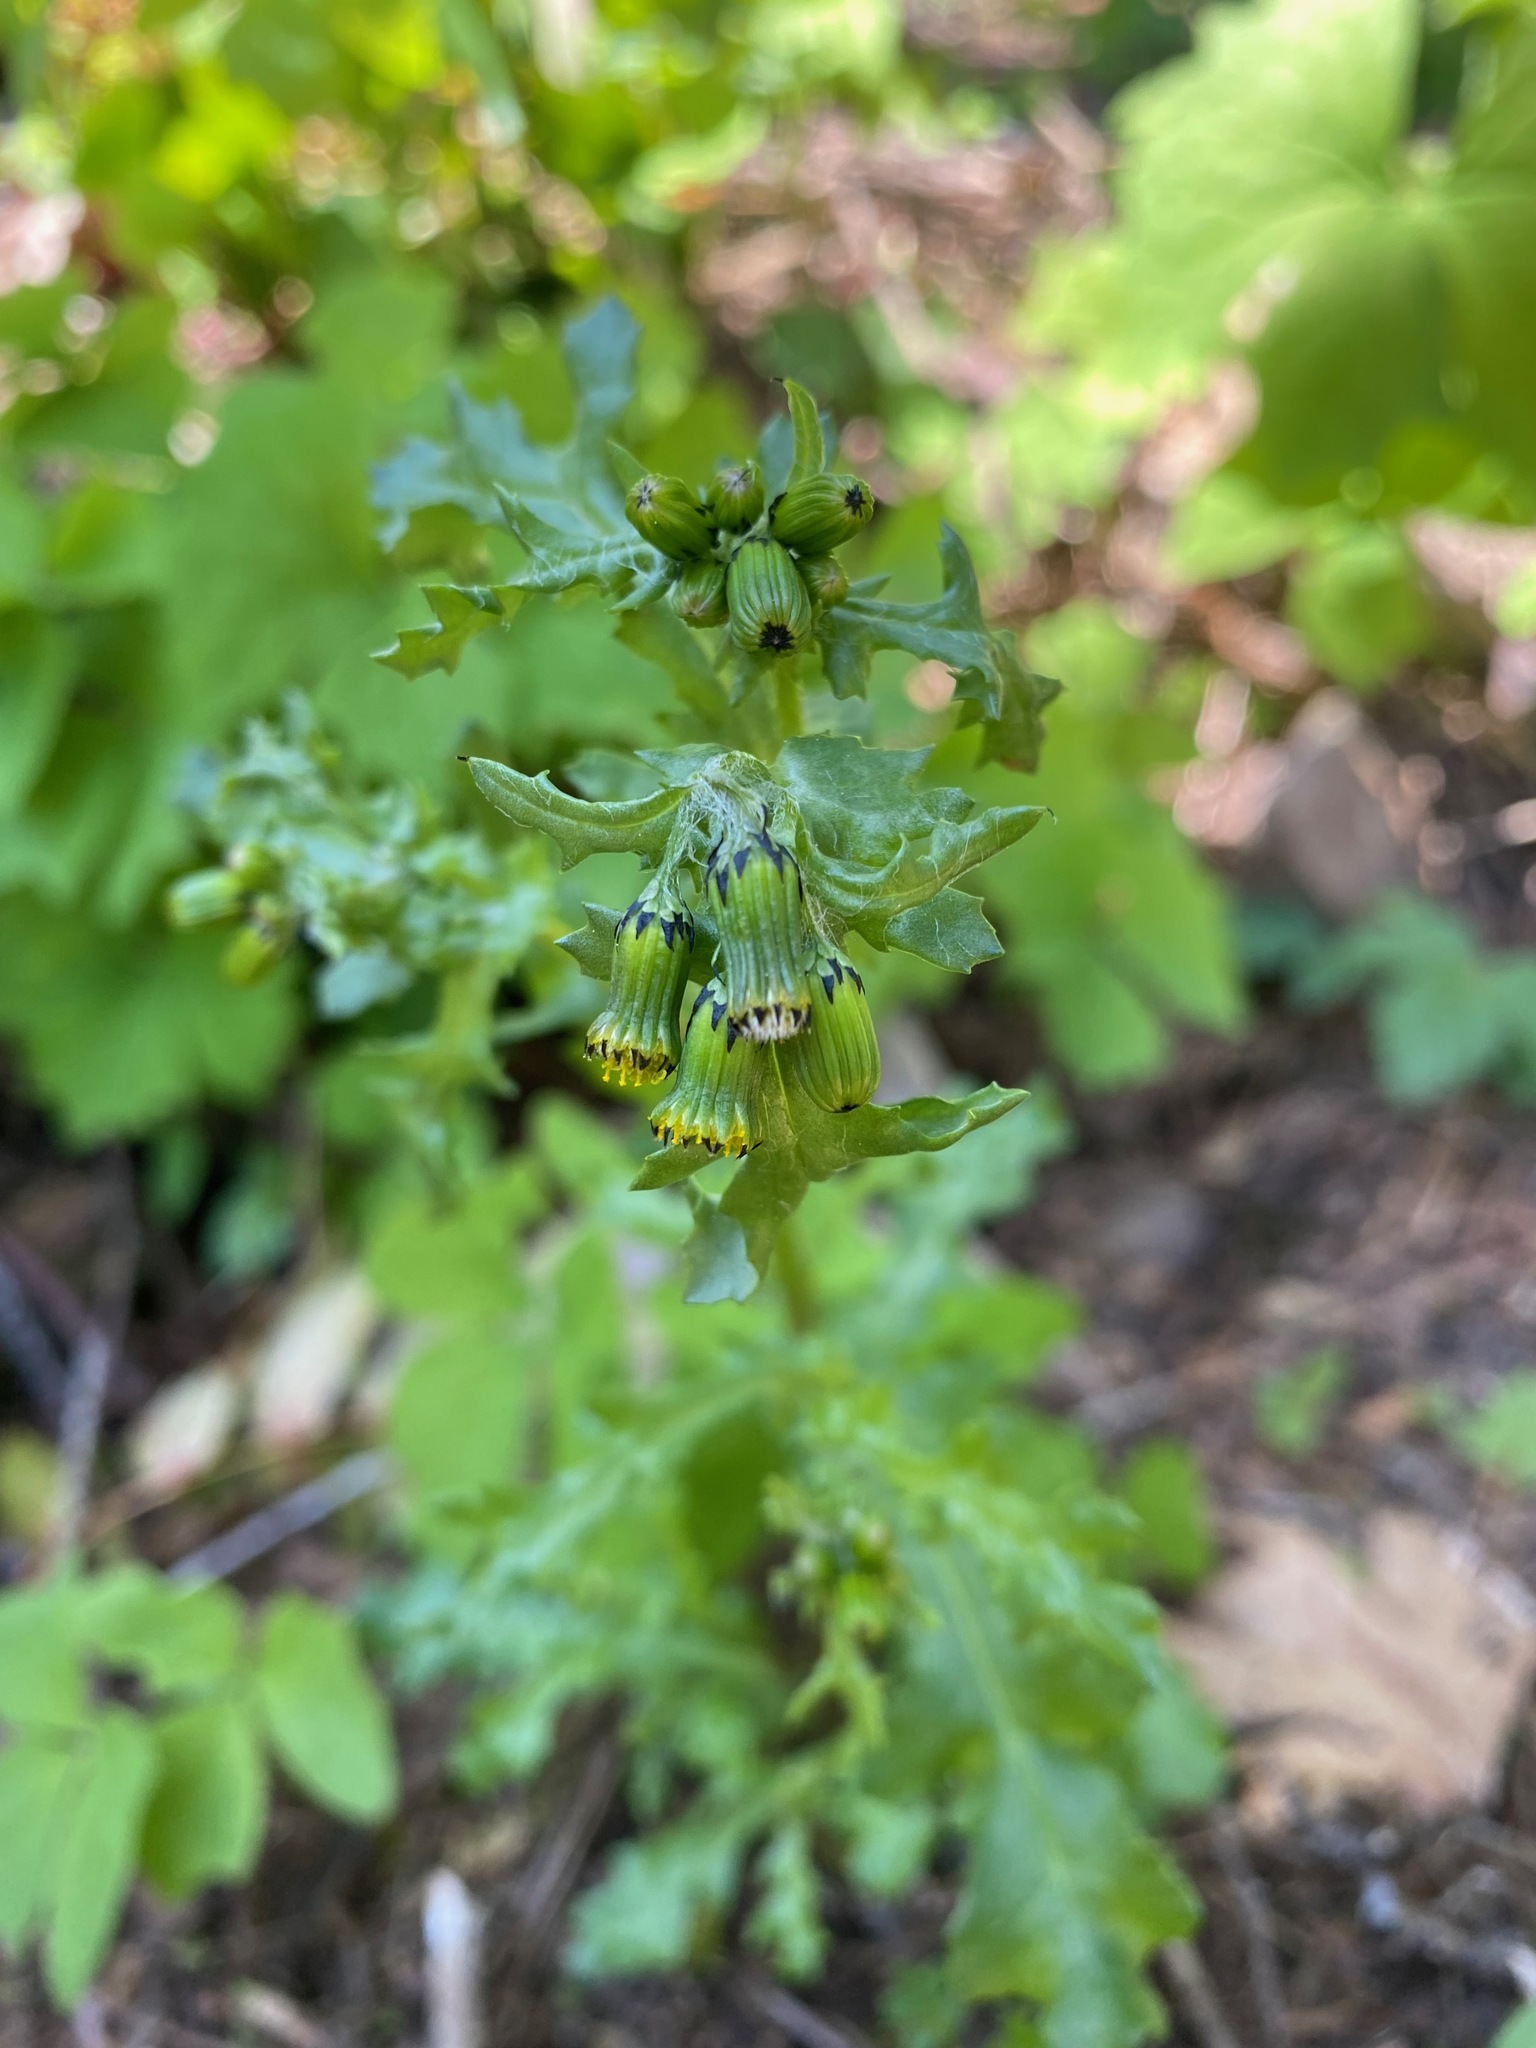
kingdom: Plantae
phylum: Tracheophyta
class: Magnoliopsida
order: Asterales
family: Asteraceae
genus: Senecio
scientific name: Senecio vulgaris
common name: Old-man-in-the-spring
